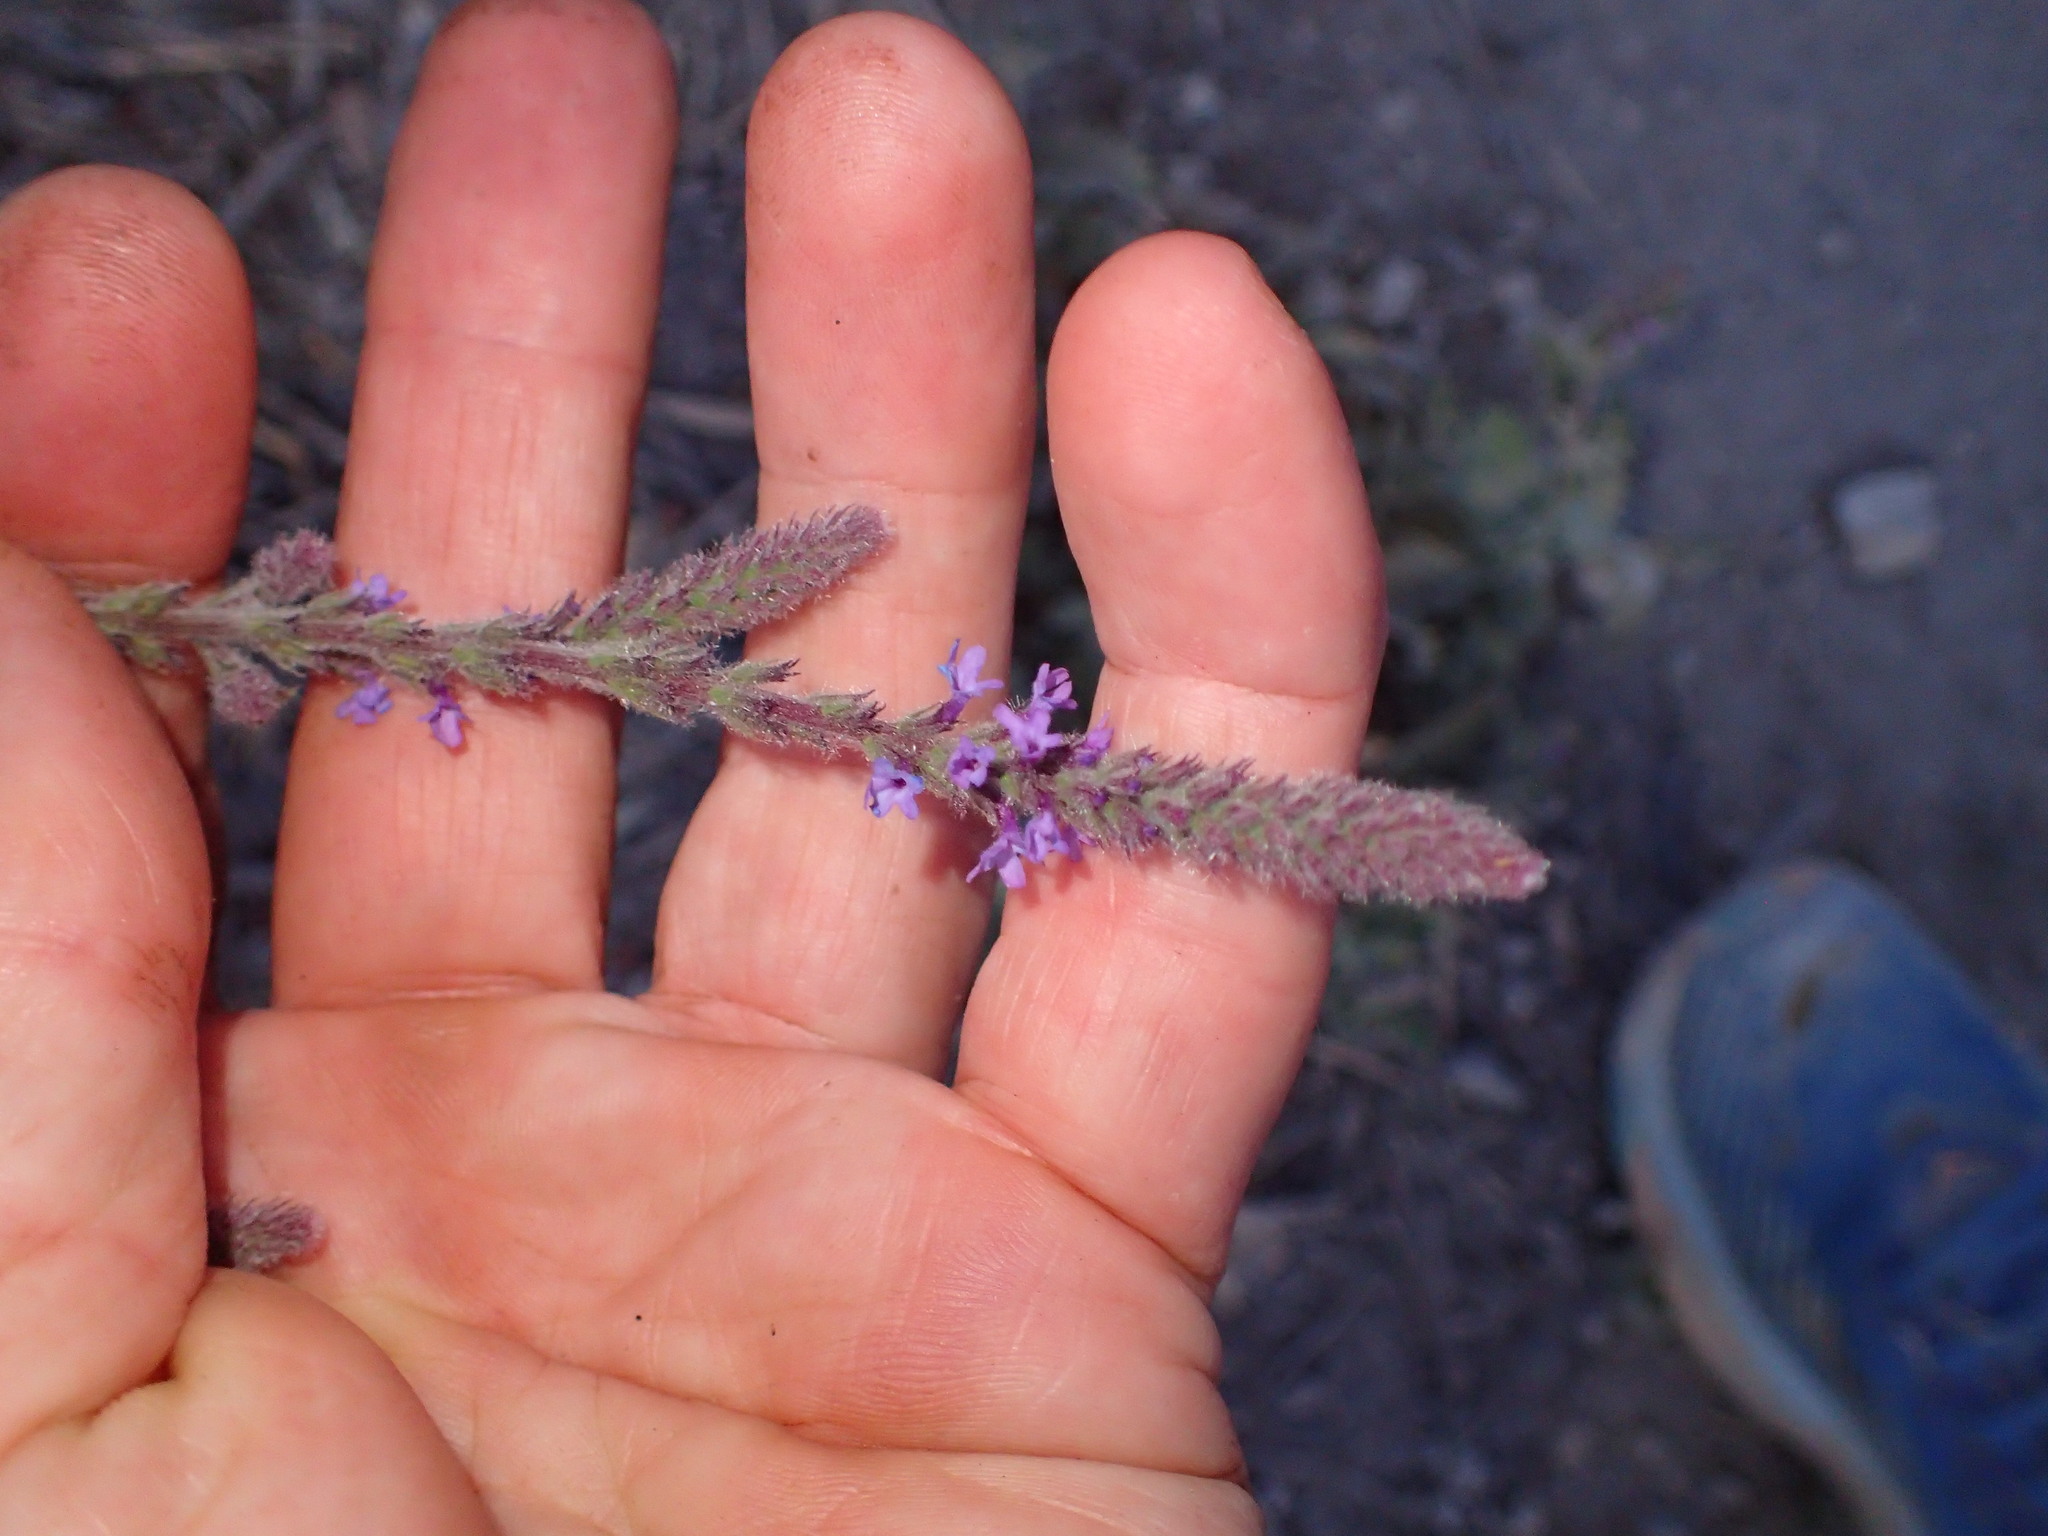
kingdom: Plantae
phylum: Tracheophyta
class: Magnoliopsida
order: Lamiales
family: Verbenaceae
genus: Verbena
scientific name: Verbena lasiostachys
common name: Vervain
